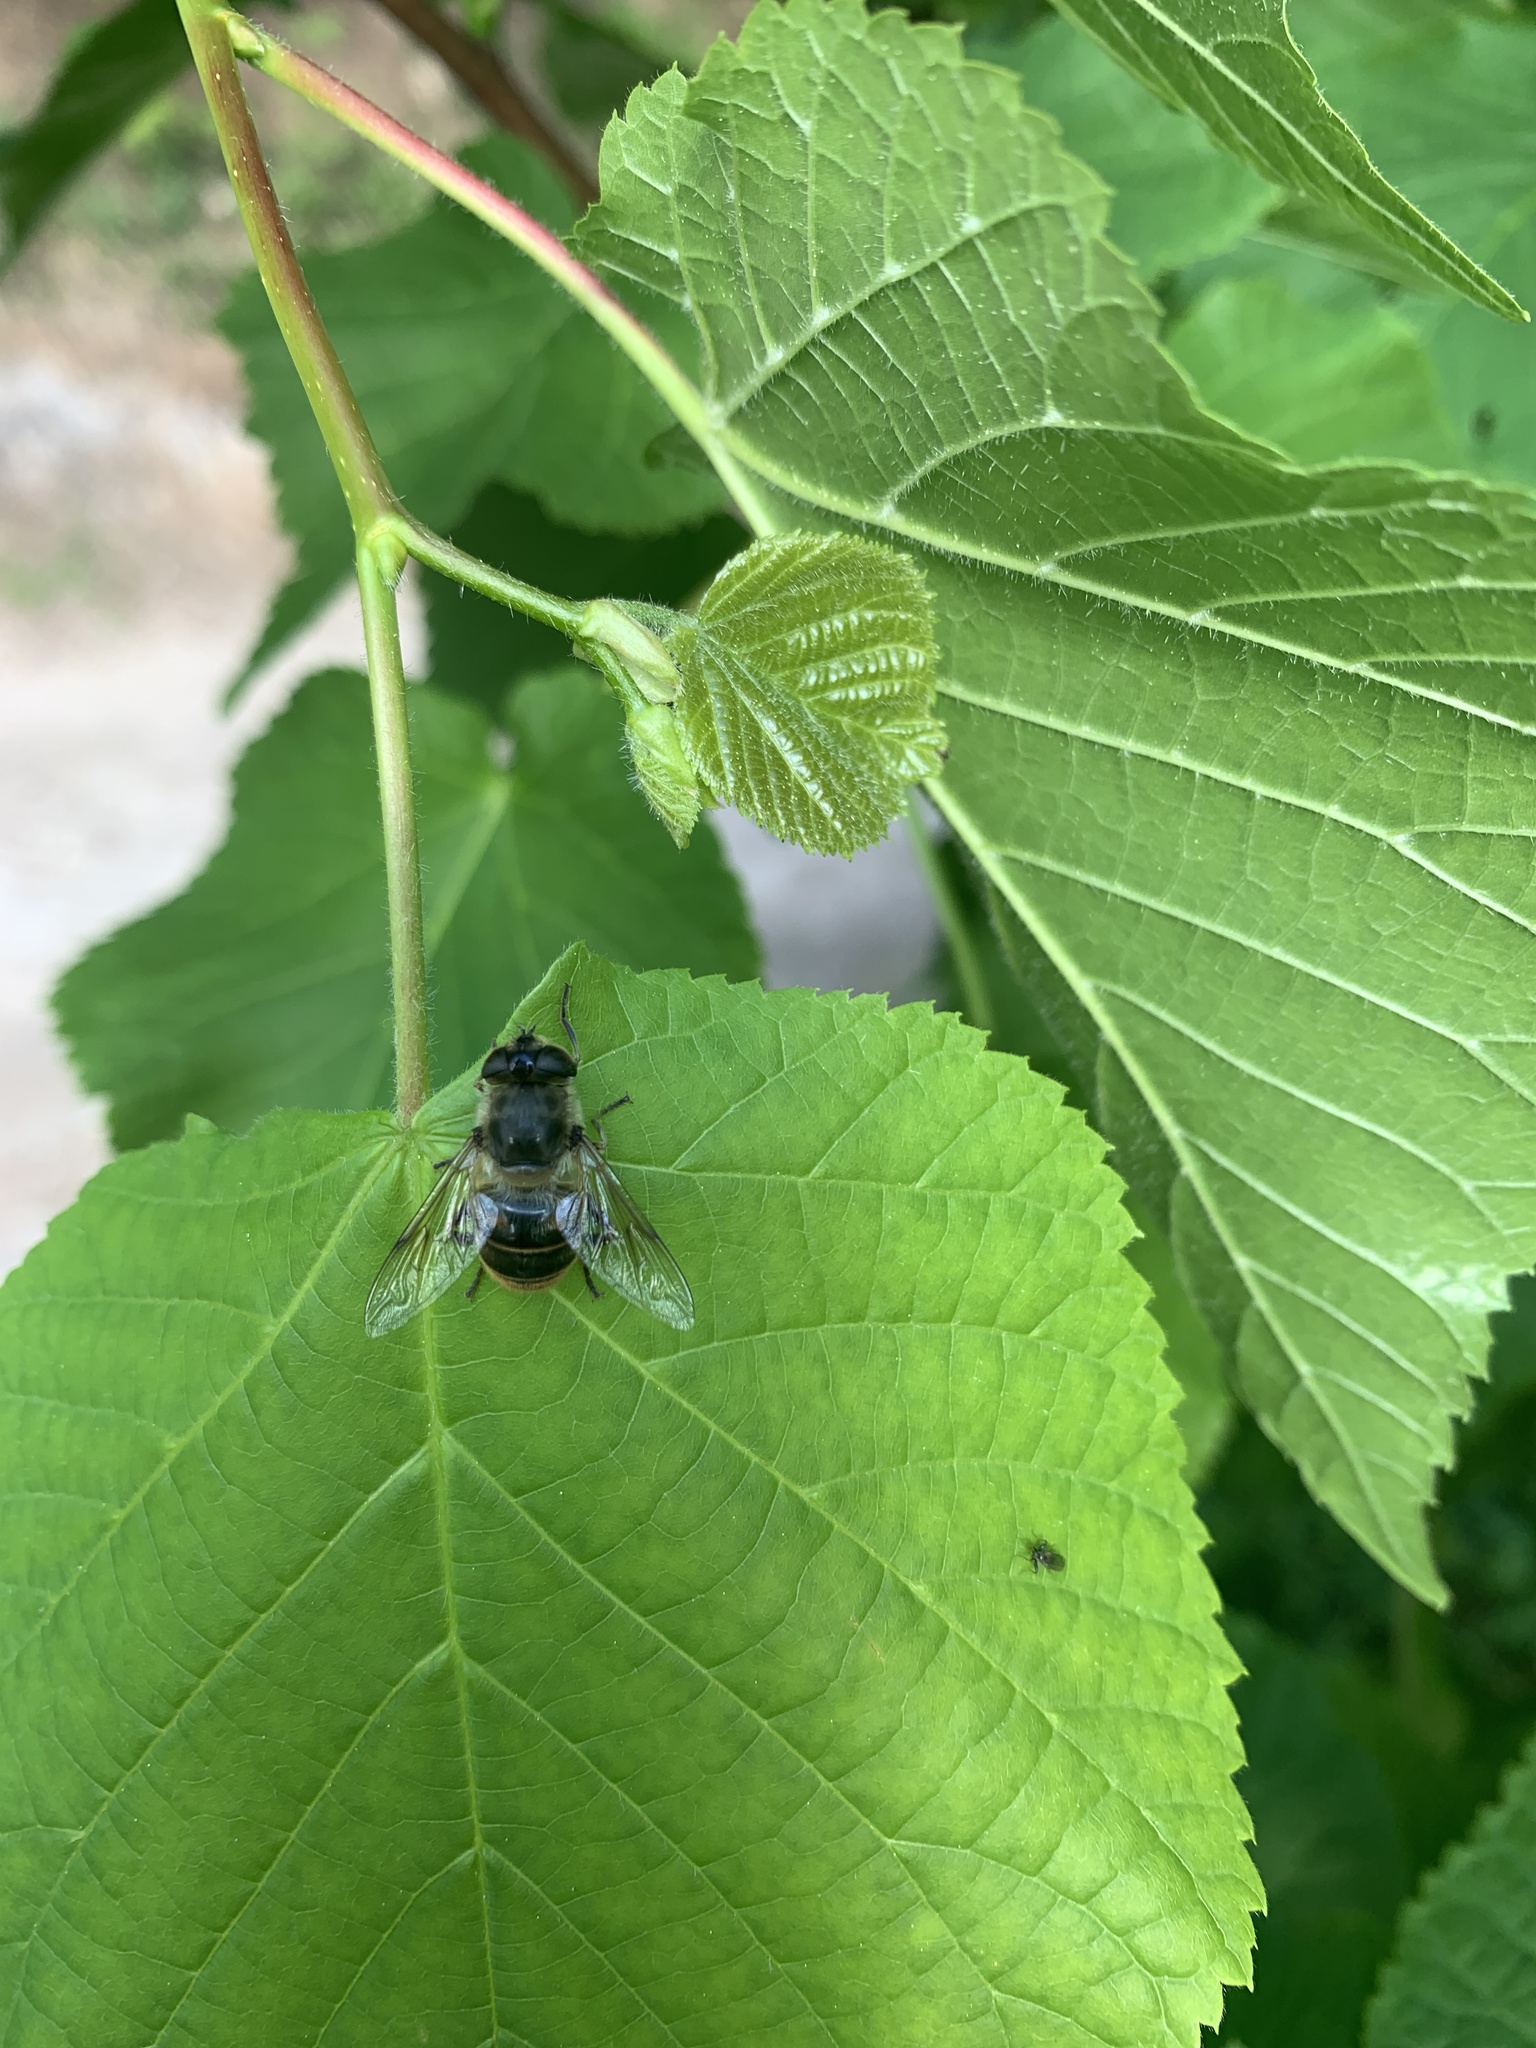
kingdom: Animalia
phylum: Arthropoda
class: Insecta
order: Diptera
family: Syrphidae
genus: Eristalis
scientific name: Eristalis tenax
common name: Drone fly
